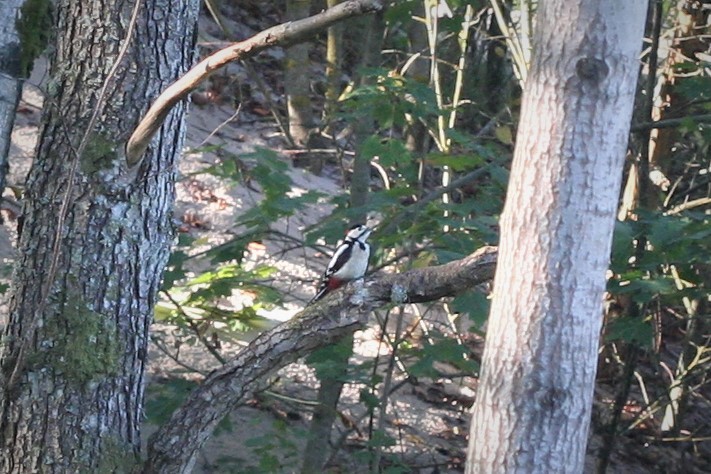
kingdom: Animalia
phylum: Chordata
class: Aves
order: Piciformes
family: Picidae
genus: Dendrocopos
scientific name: Dendrocopos major
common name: Great spotted woodpecker
